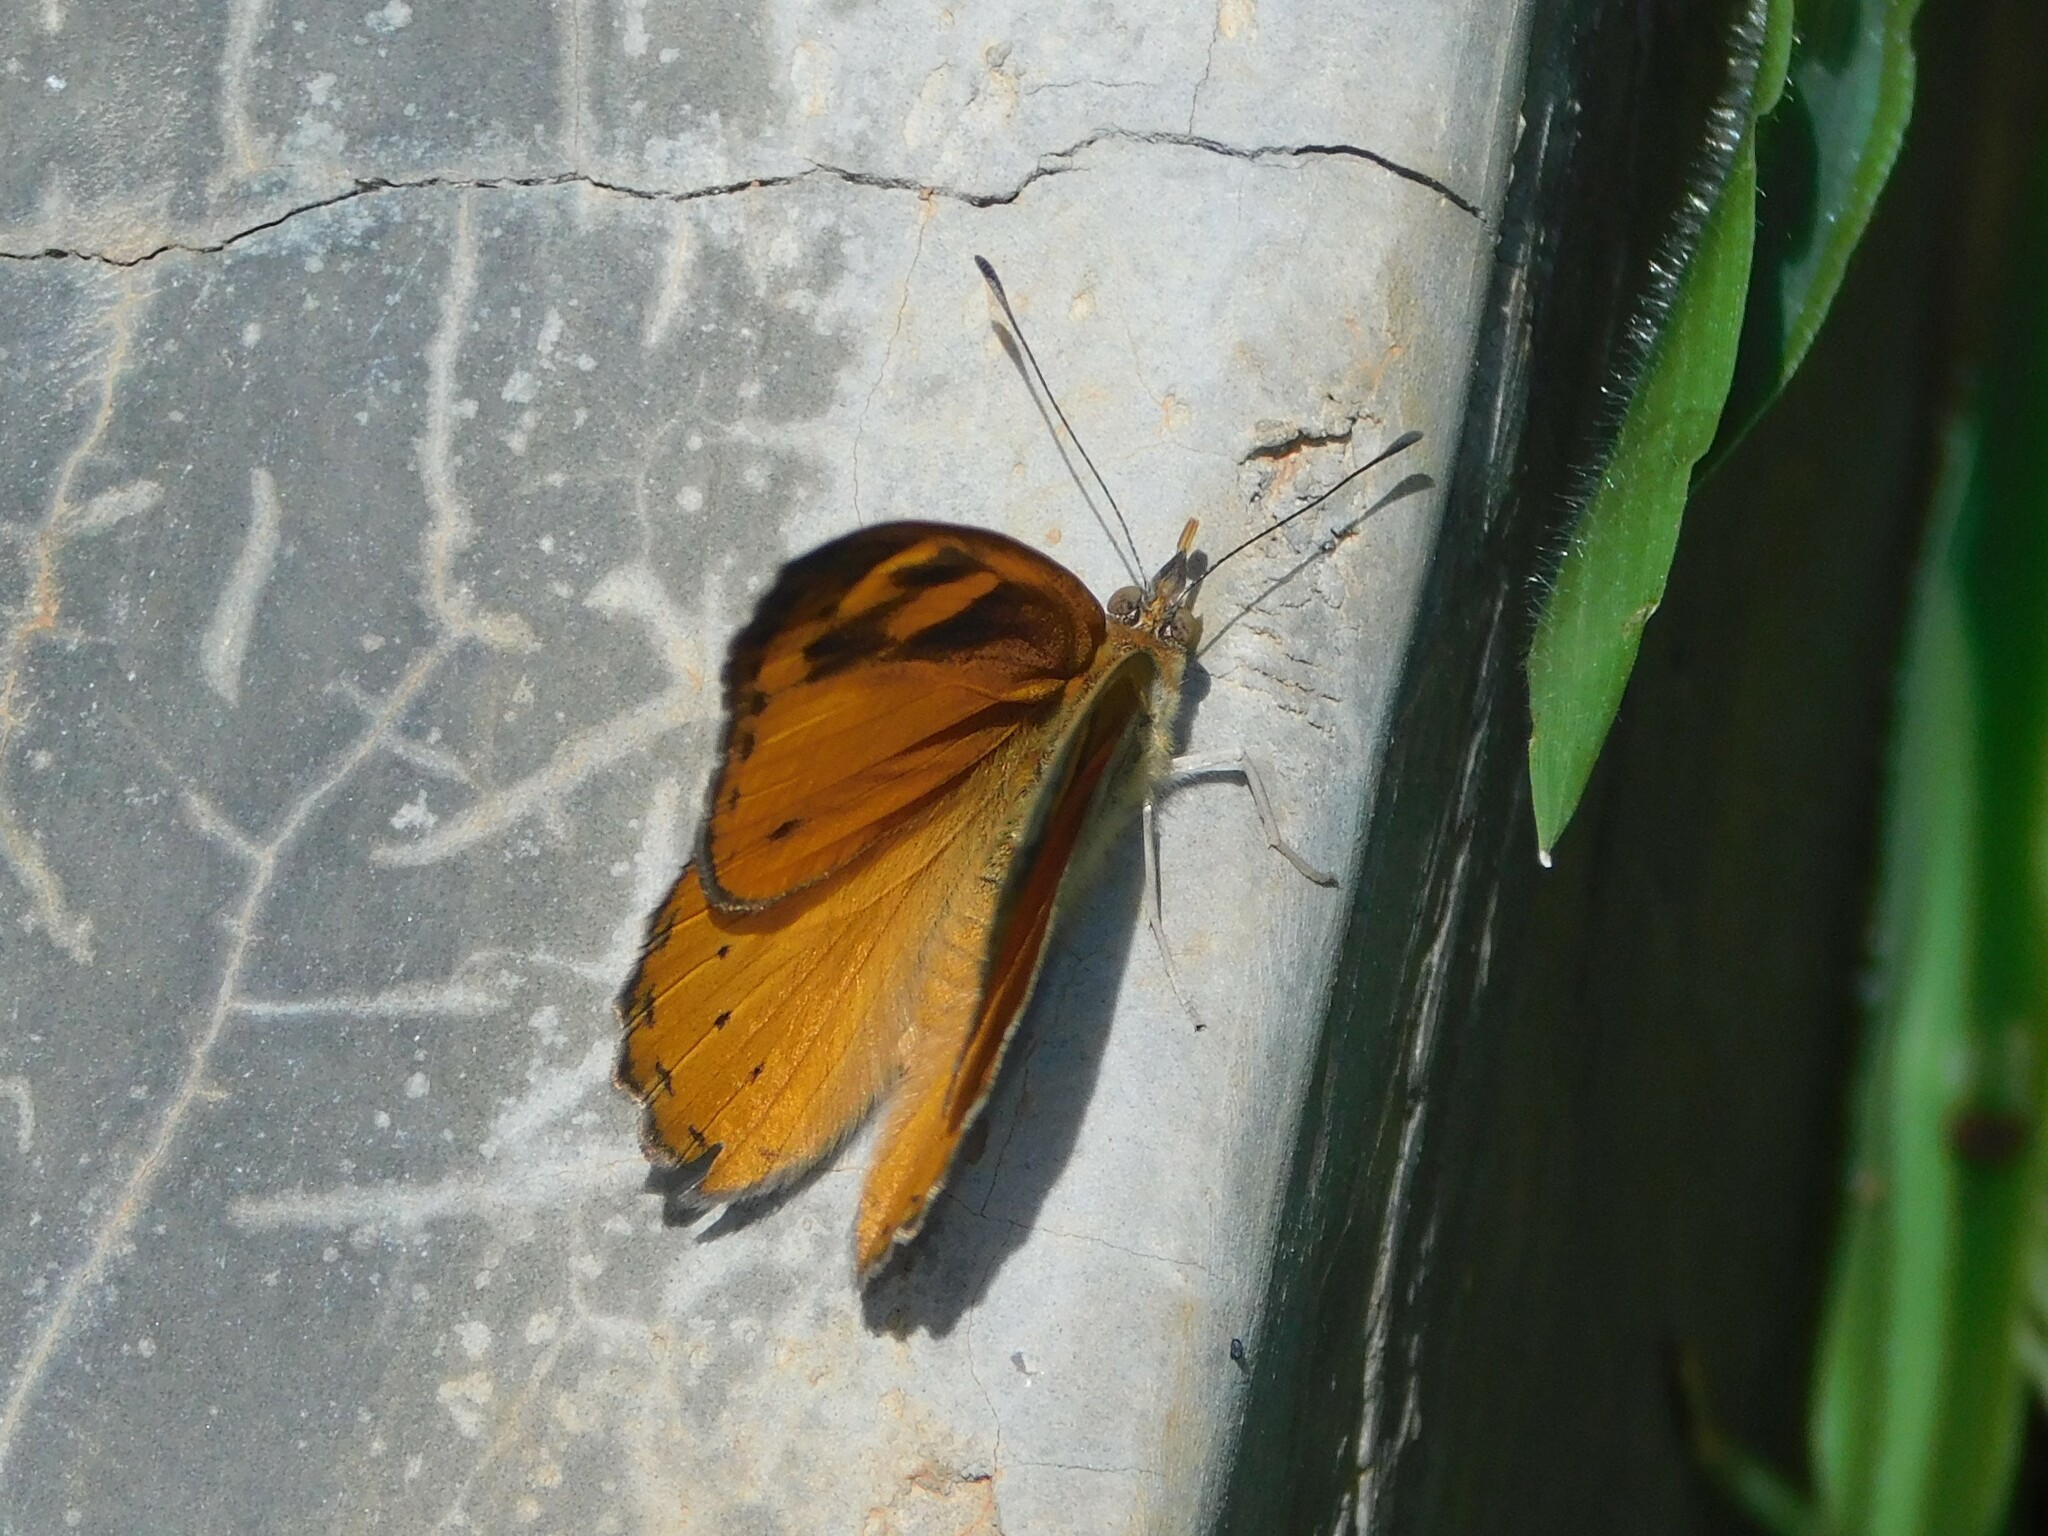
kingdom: Animalia
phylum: Arthropoda
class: Insecta
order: Lepidoptera
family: Nymphalidae
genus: Sevenia
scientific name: Sevenia
